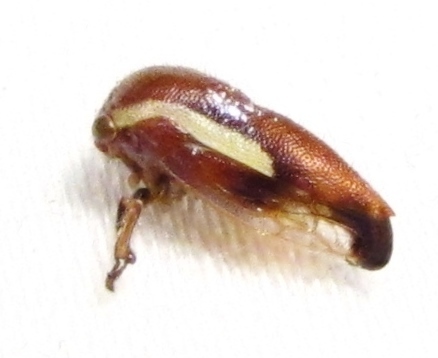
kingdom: Animalia
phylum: Arthropoda
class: Insecta
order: Hemiptera
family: Membracidae
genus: Ophiderma
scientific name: Ophiderma flavicephala
